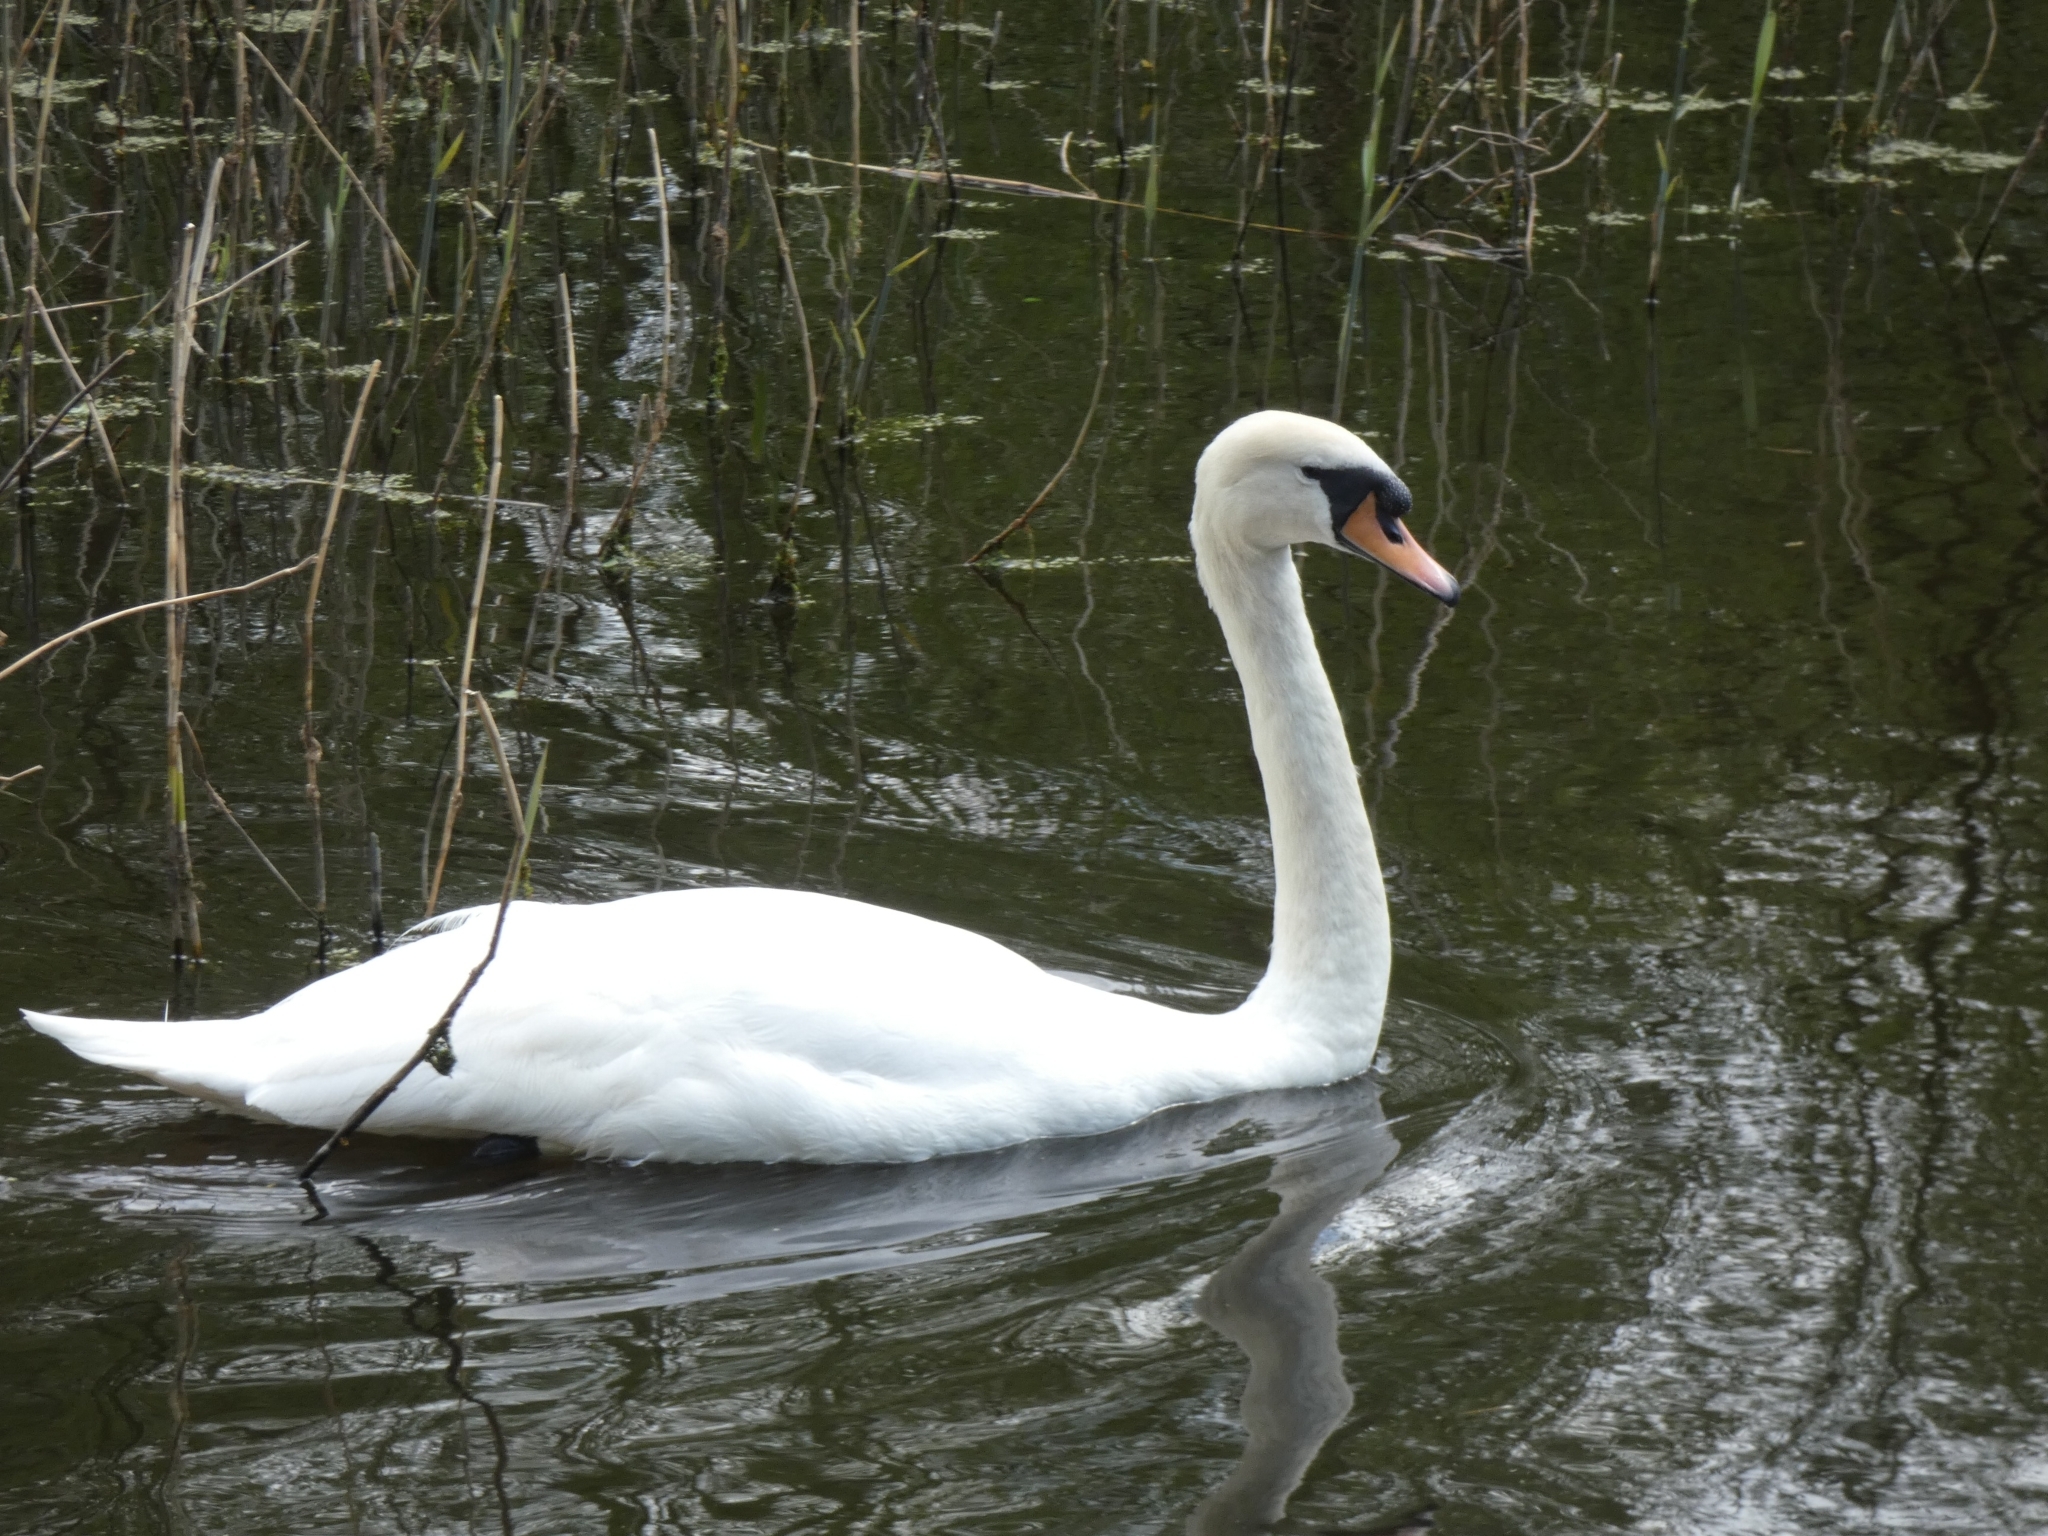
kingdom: Animalia
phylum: Chordata
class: Aves
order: Anseriformes
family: Anatidae
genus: Cygnus
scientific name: Cygnus olor
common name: Mute swan
